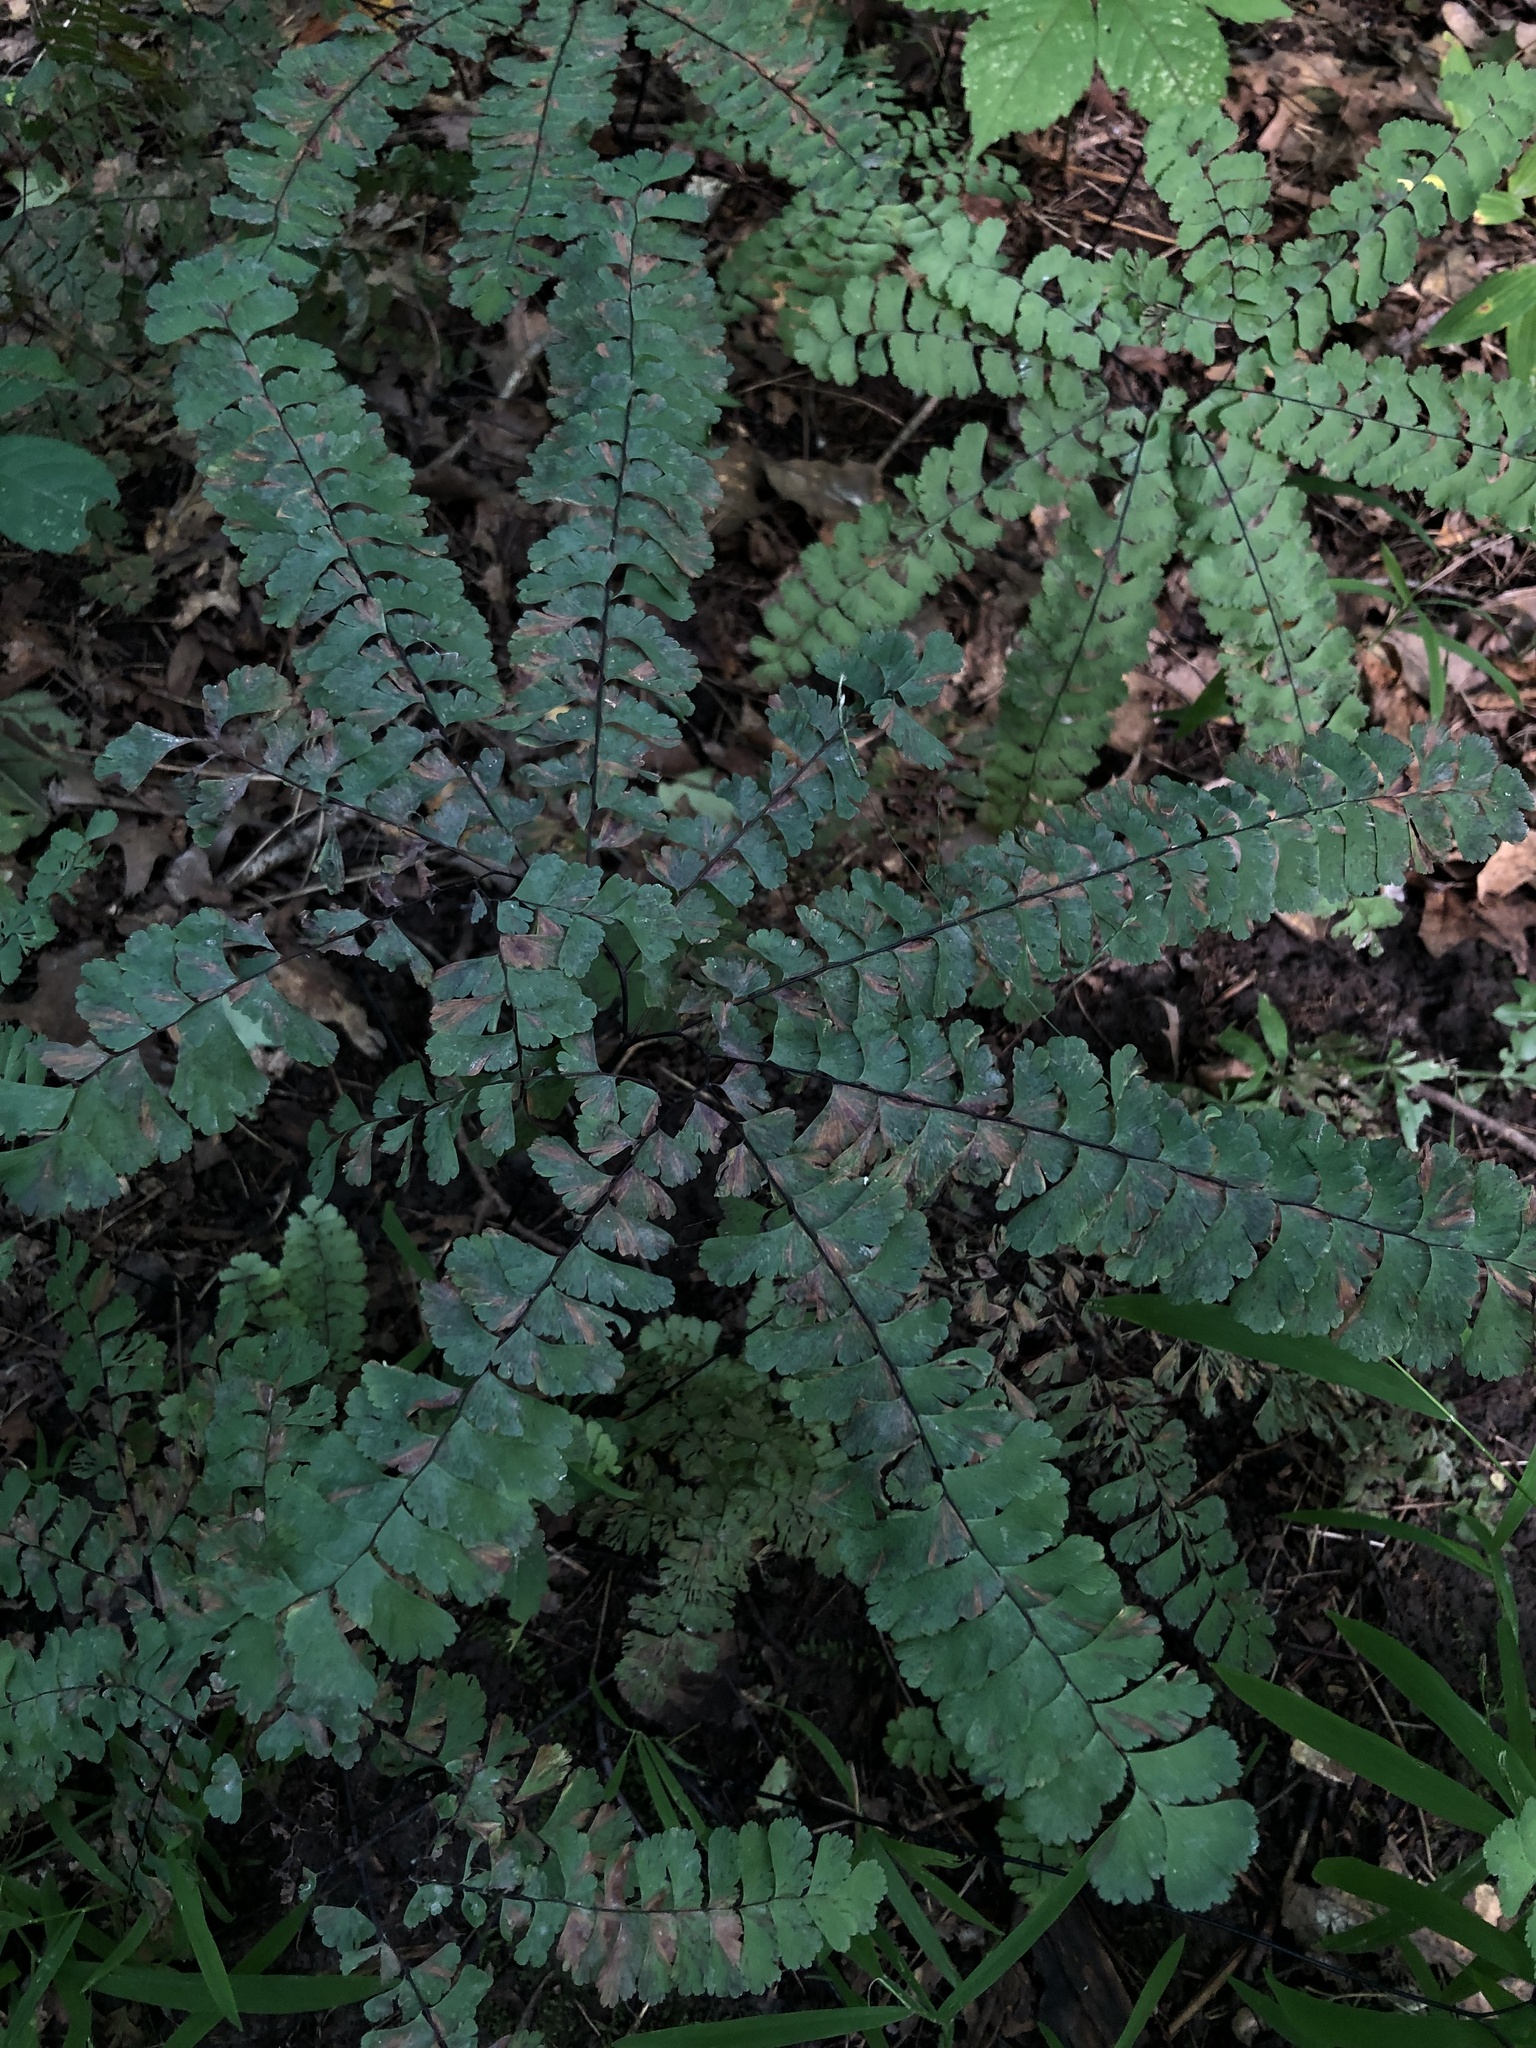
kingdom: Plantae
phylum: Tracheophyta
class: Polypodiopsida
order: Polypodiales
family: Pteridaceae
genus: Adiantum
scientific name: Adiantum pedatum
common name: Five-finger fern
